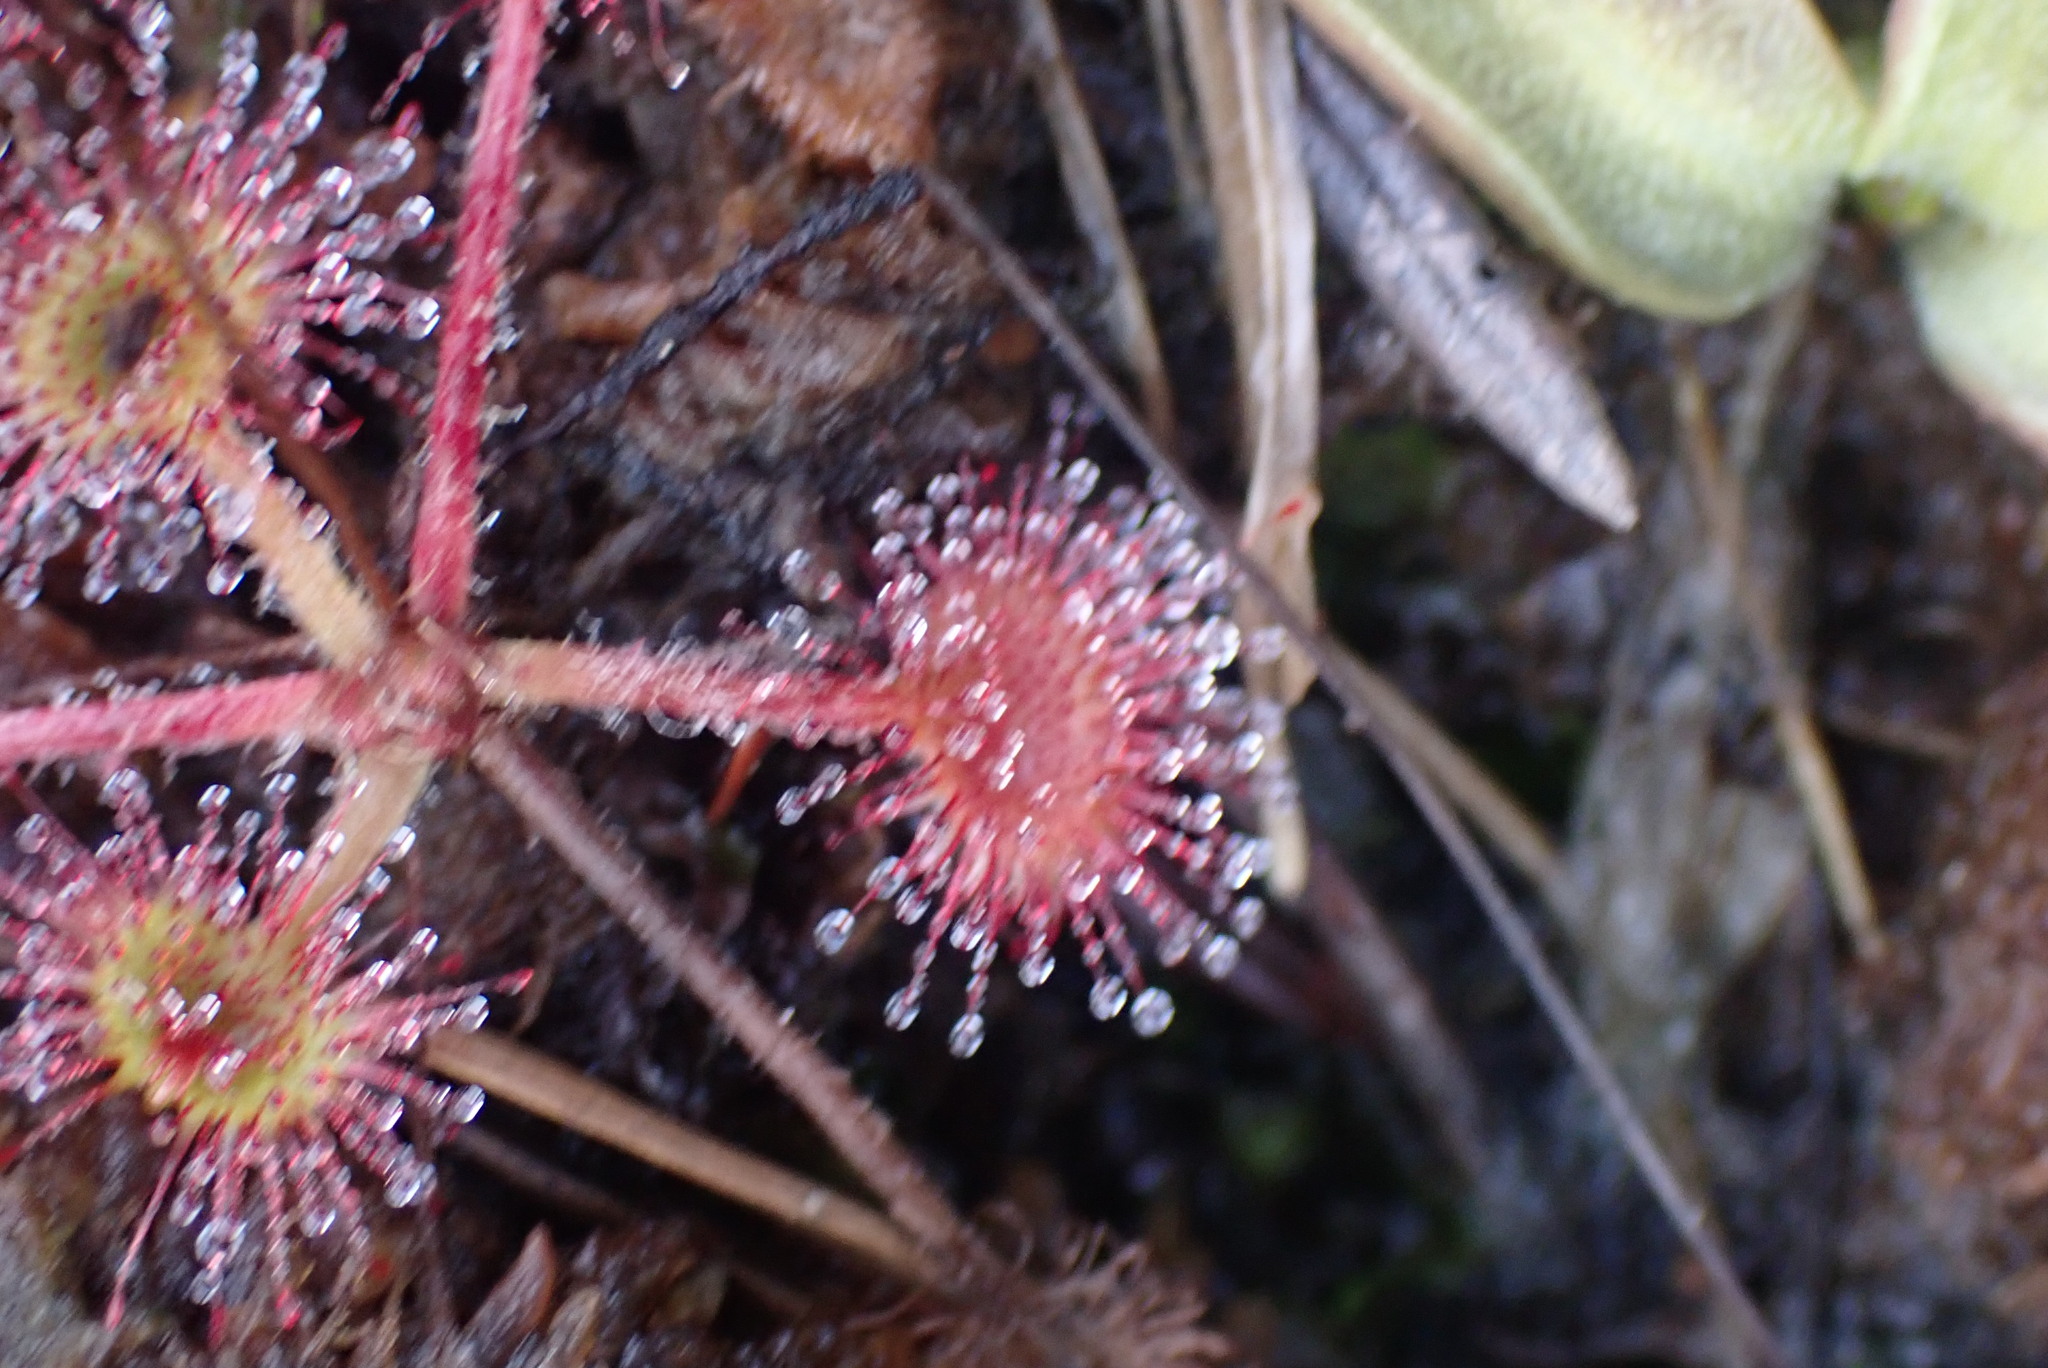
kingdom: Plantae
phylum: Tracheophyta
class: Magnoliopsida
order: Caryophyllales
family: Droseraceae
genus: Drosera
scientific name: Drosera rotundifolia
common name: Round-leaved sundew
